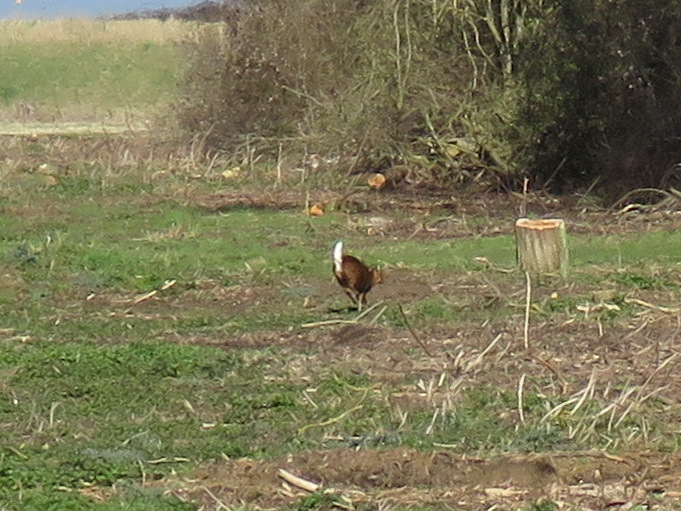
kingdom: Animalia
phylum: Chordata
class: Mammalia
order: Artiodactyla
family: Cervidae
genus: Muntiacus
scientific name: Muntiacus reevesi
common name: Reeves' muntjac
